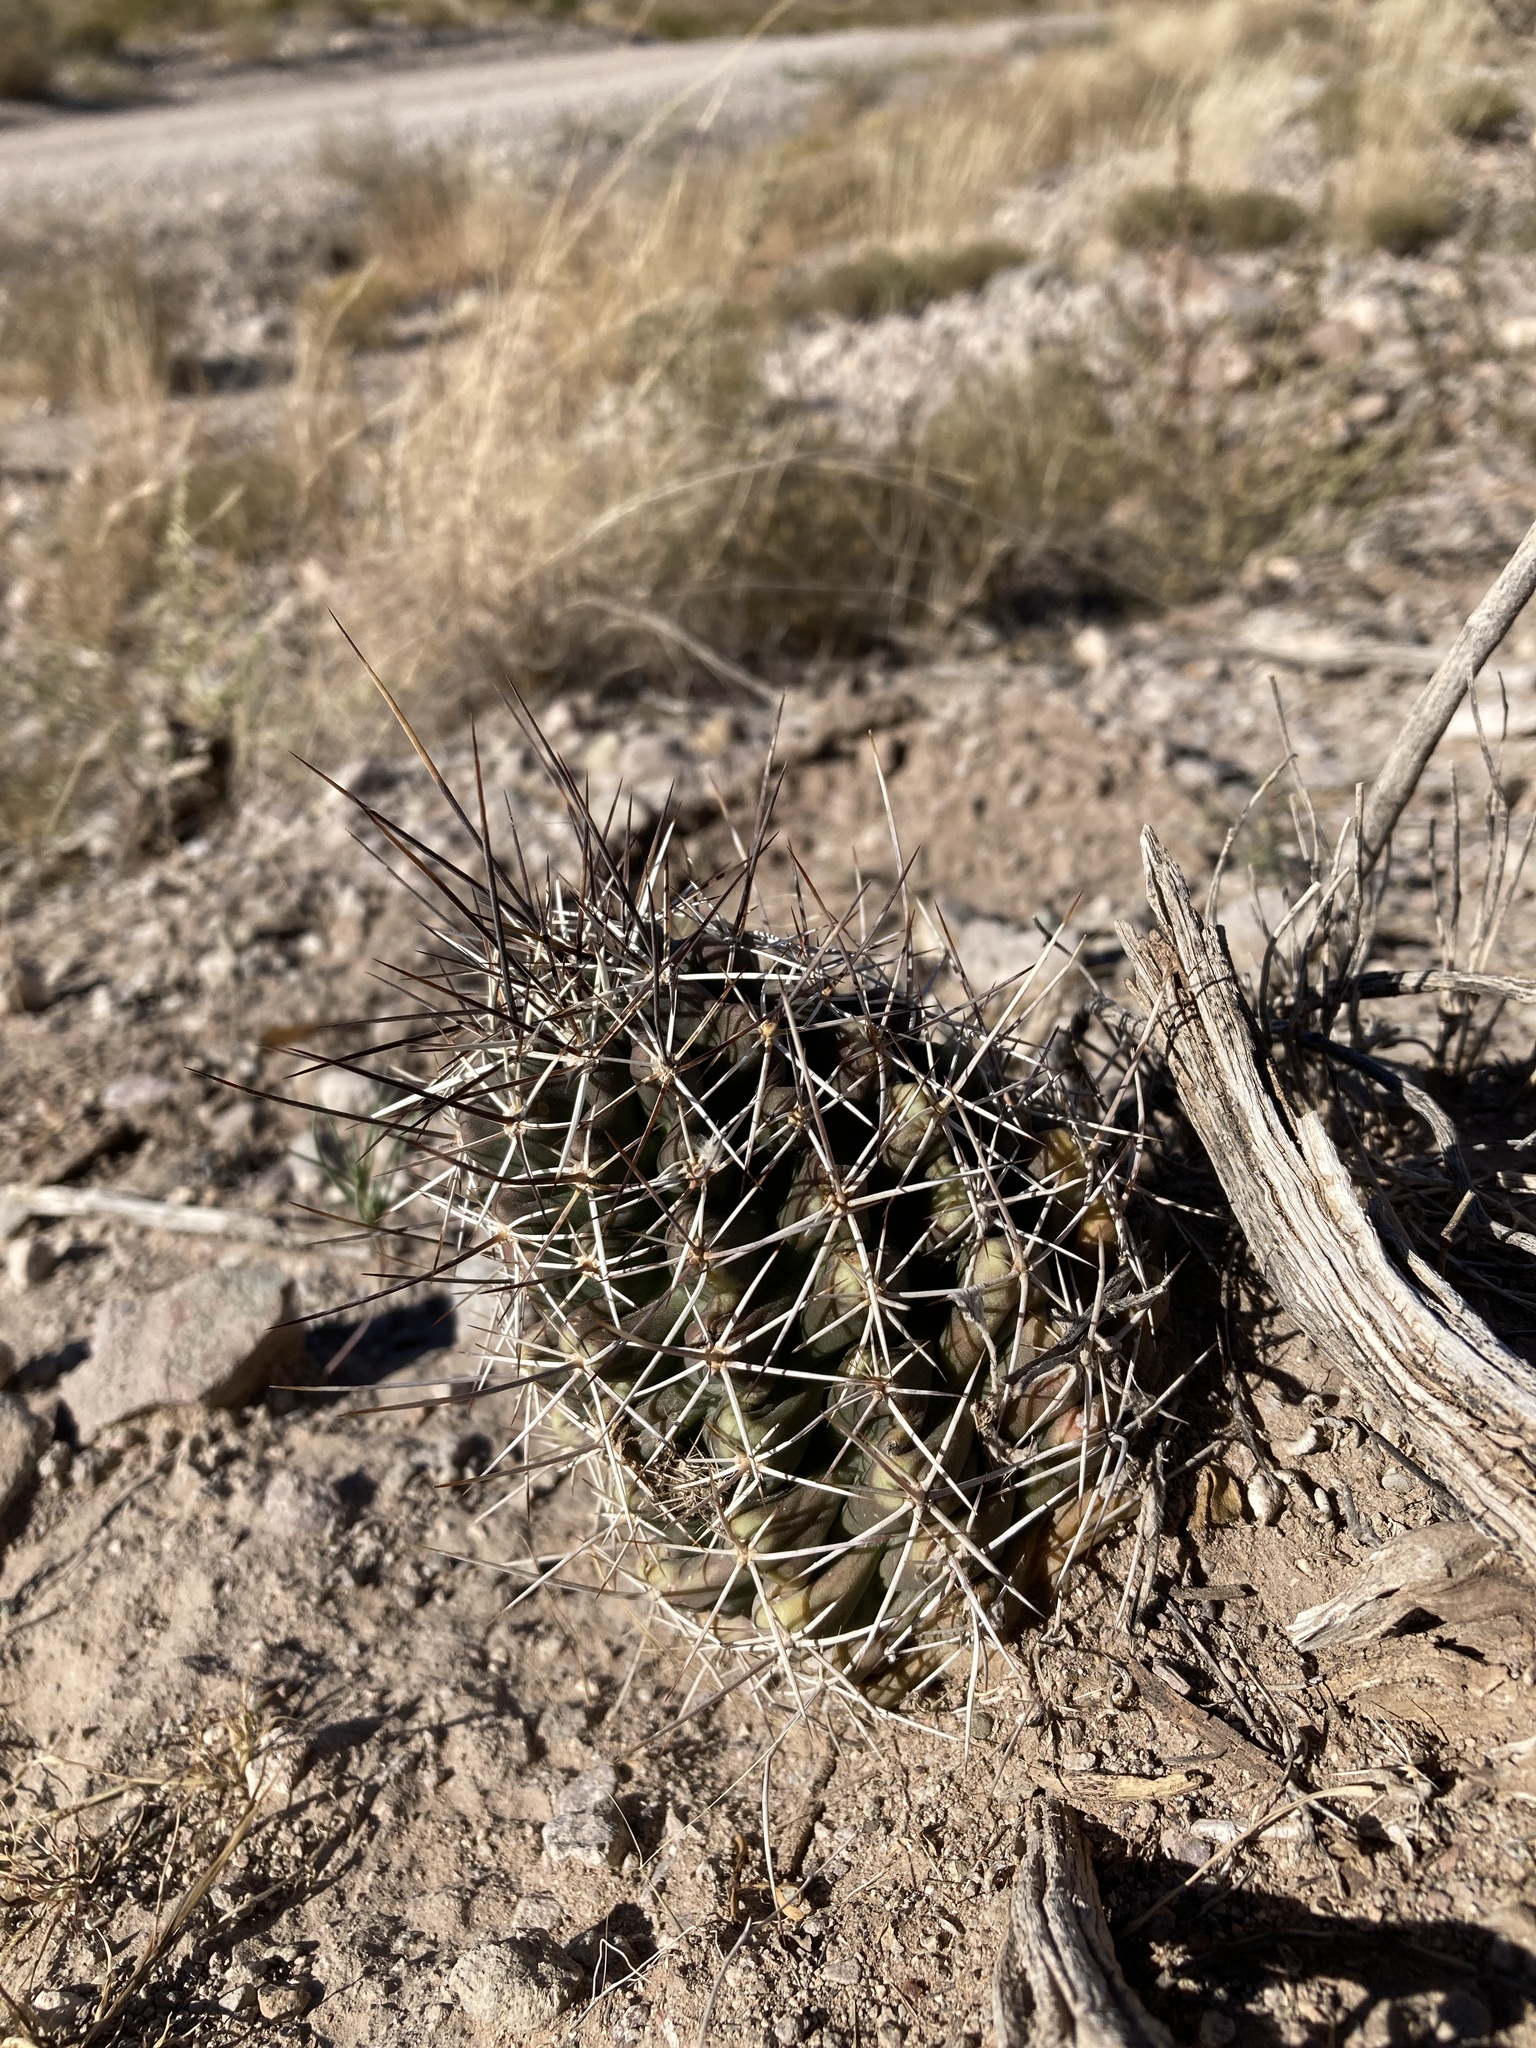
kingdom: Plantae
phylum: Tracheophyta
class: Magnoliopsida
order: Caryophyllales
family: Cactaceae
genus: Echinocereus
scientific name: Echinocereus fendleri
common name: Fendler's hedgehog cactus
